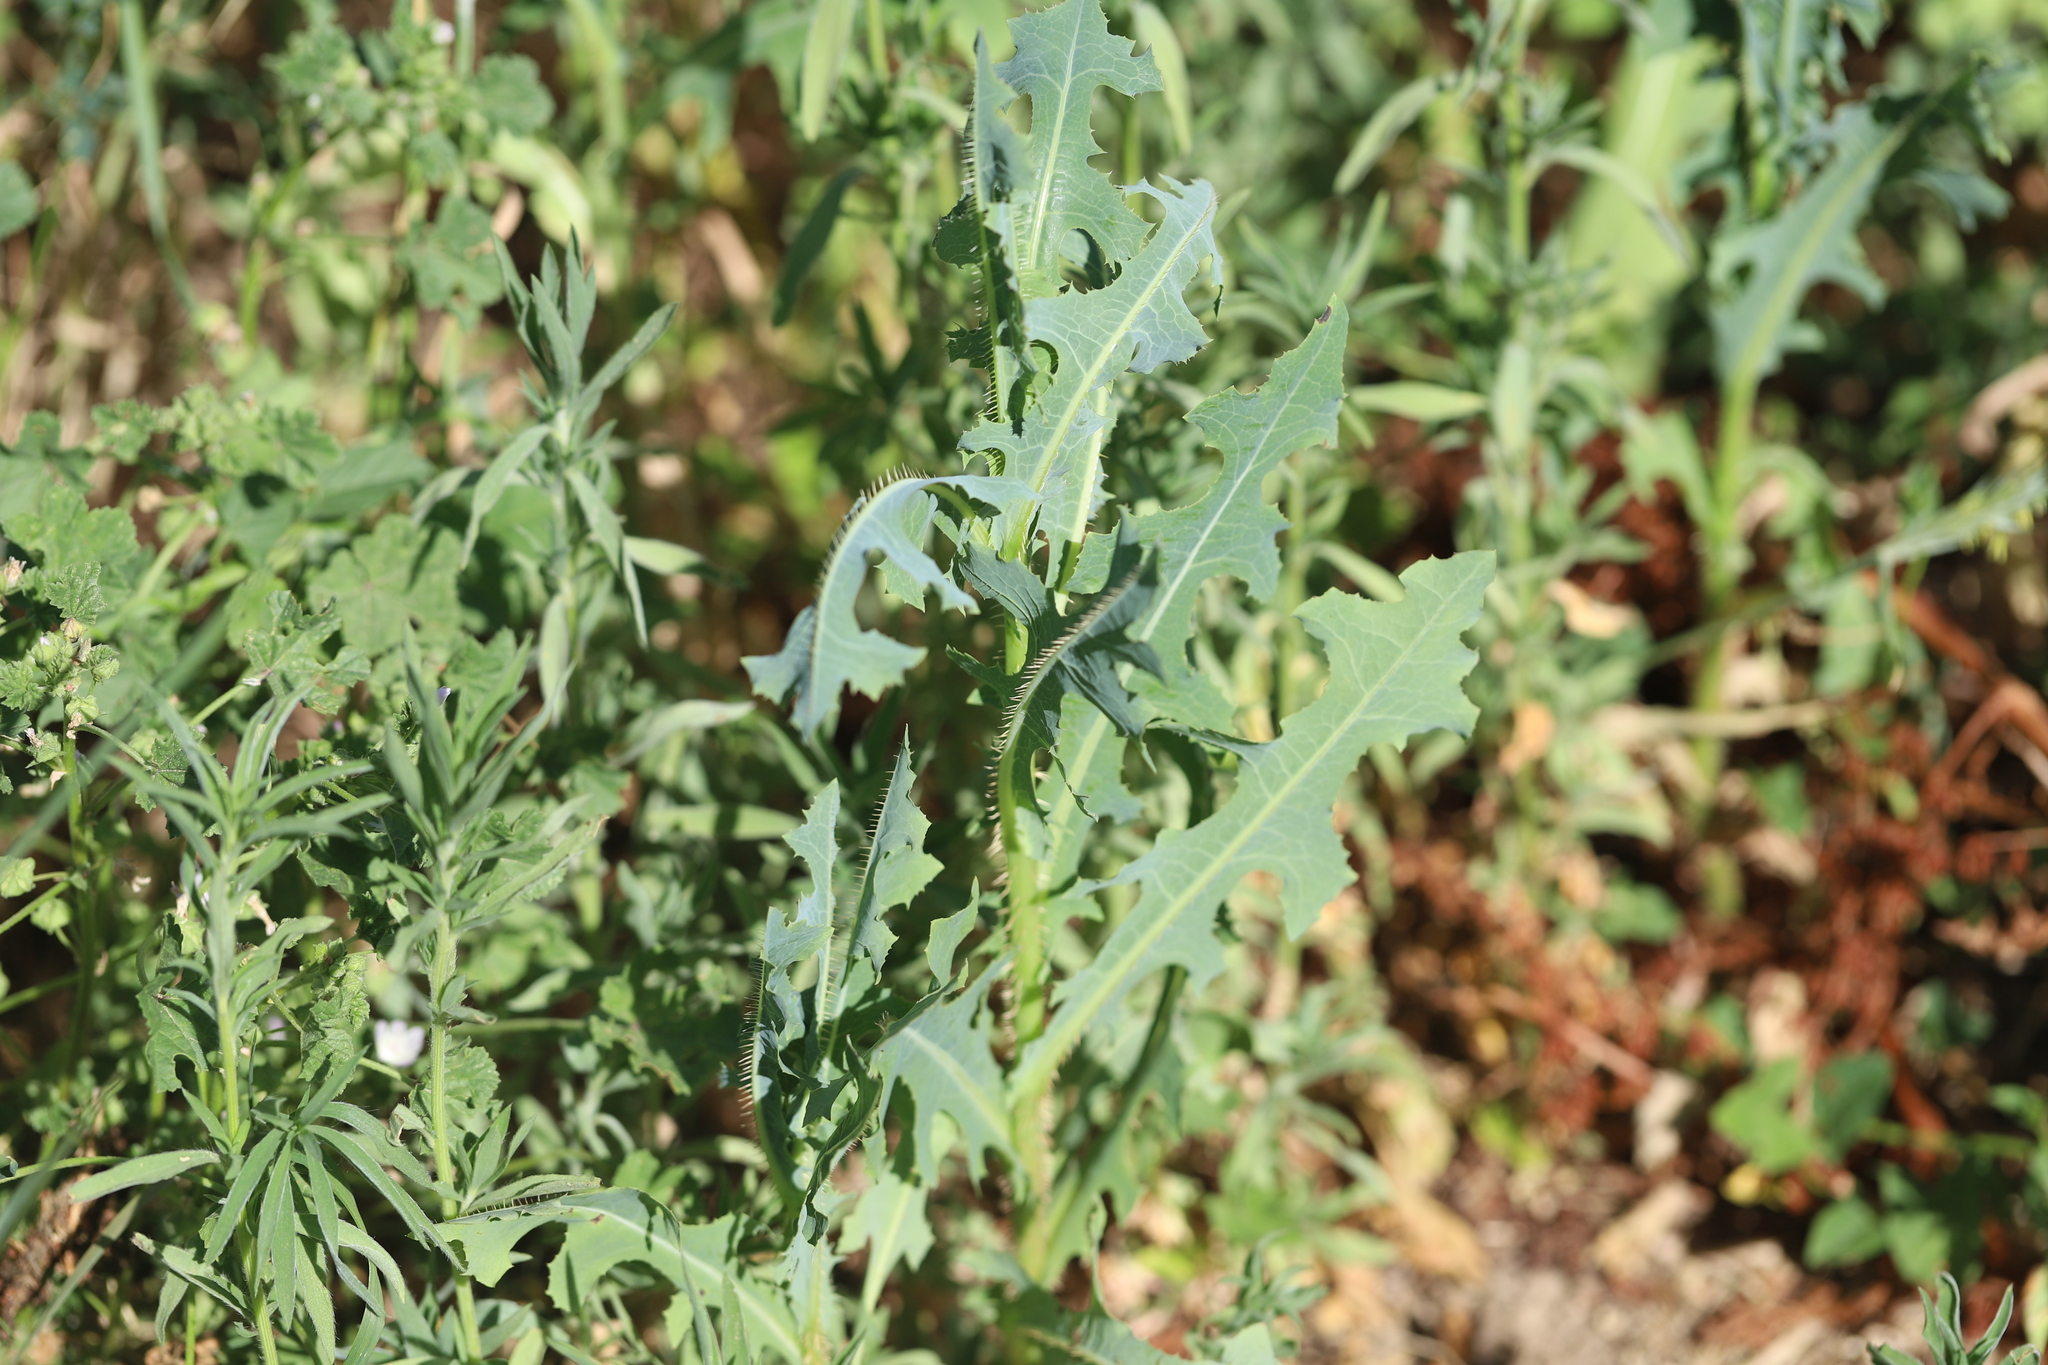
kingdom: Plantae
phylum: Tracheophyta
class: Magnoliopsida
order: Asterales
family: Asteraceae
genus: Lactuca
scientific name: Lactuca serriola
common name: Prickly lettuce
